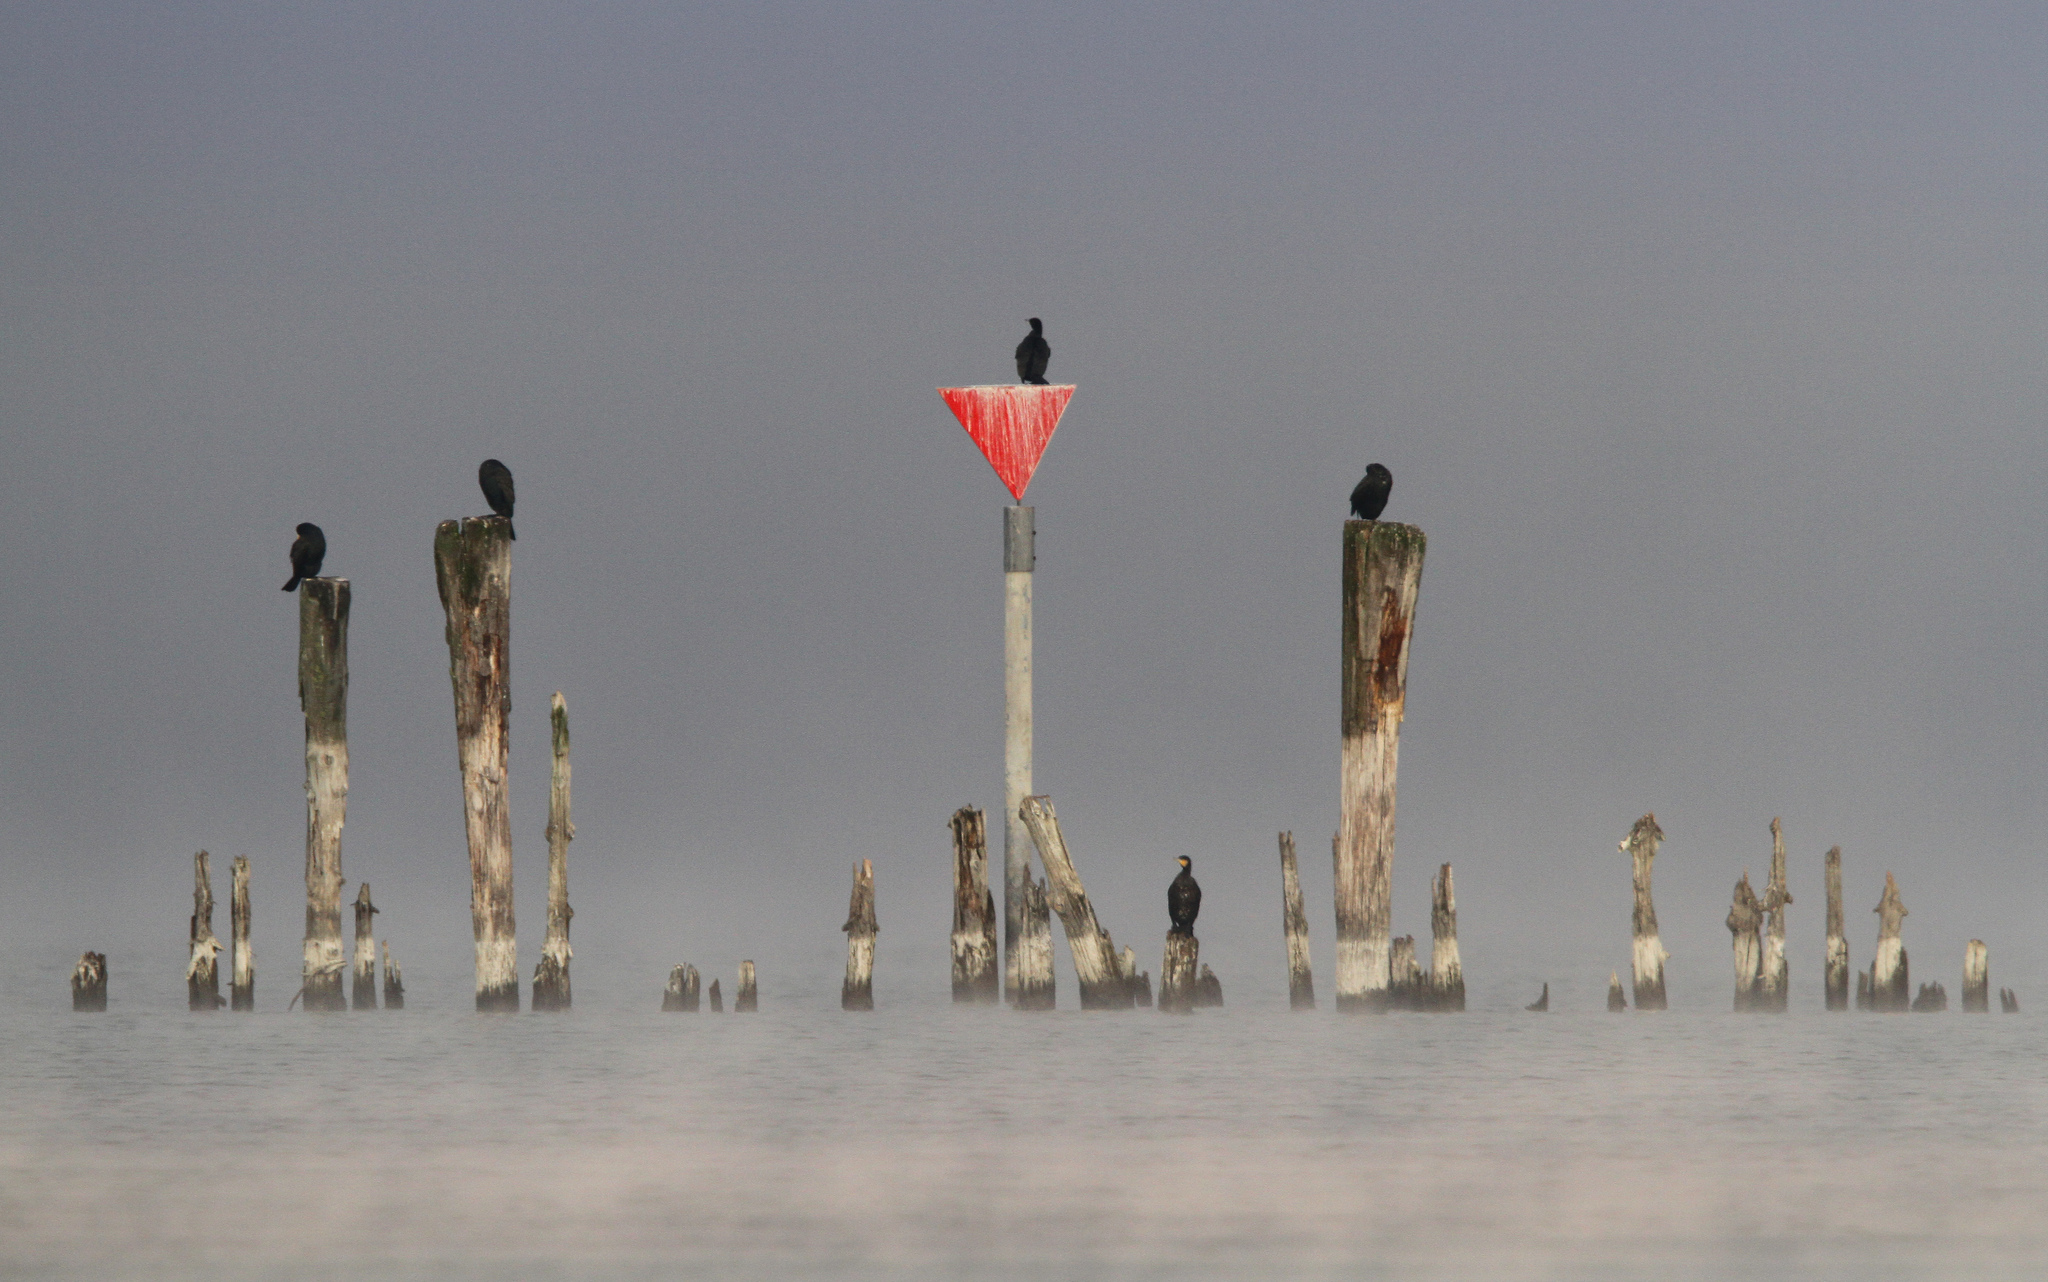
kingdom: Animalia
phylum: Chordata
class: Aves
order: Suliformes
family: Phalacrocoracidae
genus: Phalacrocorax
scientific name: Phalacrocorax carbo
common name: Great cormorant
